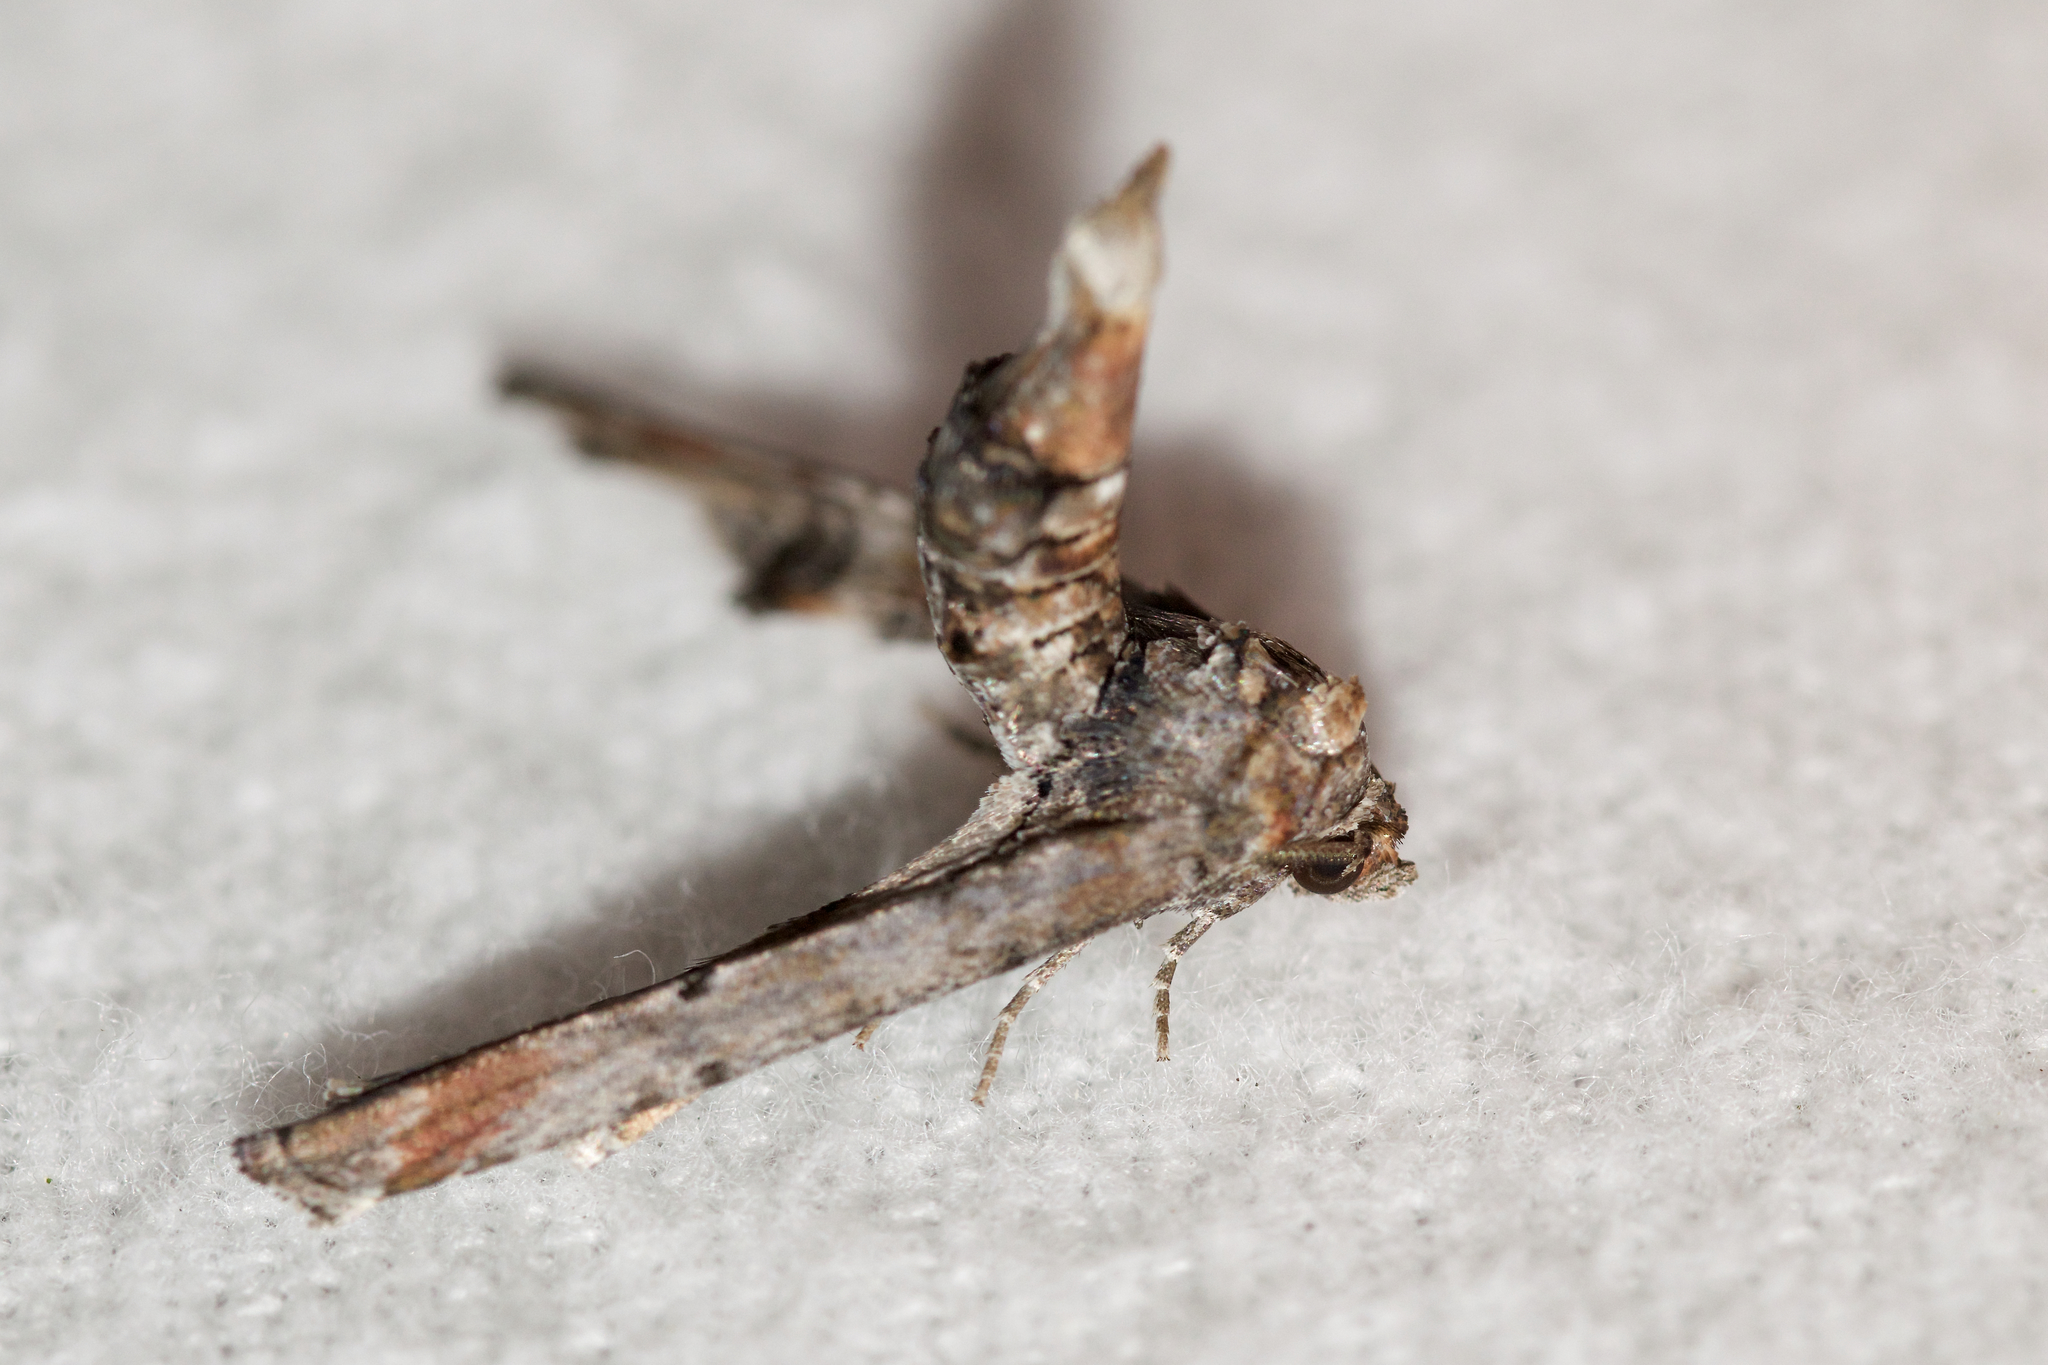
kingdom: Animalia
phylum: Arthropoda
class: Insecta
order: Lepidoptera
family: Euteliidae
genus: Marathyssa
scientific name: Marathyssa inficita
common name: Dark marathyssa moth
